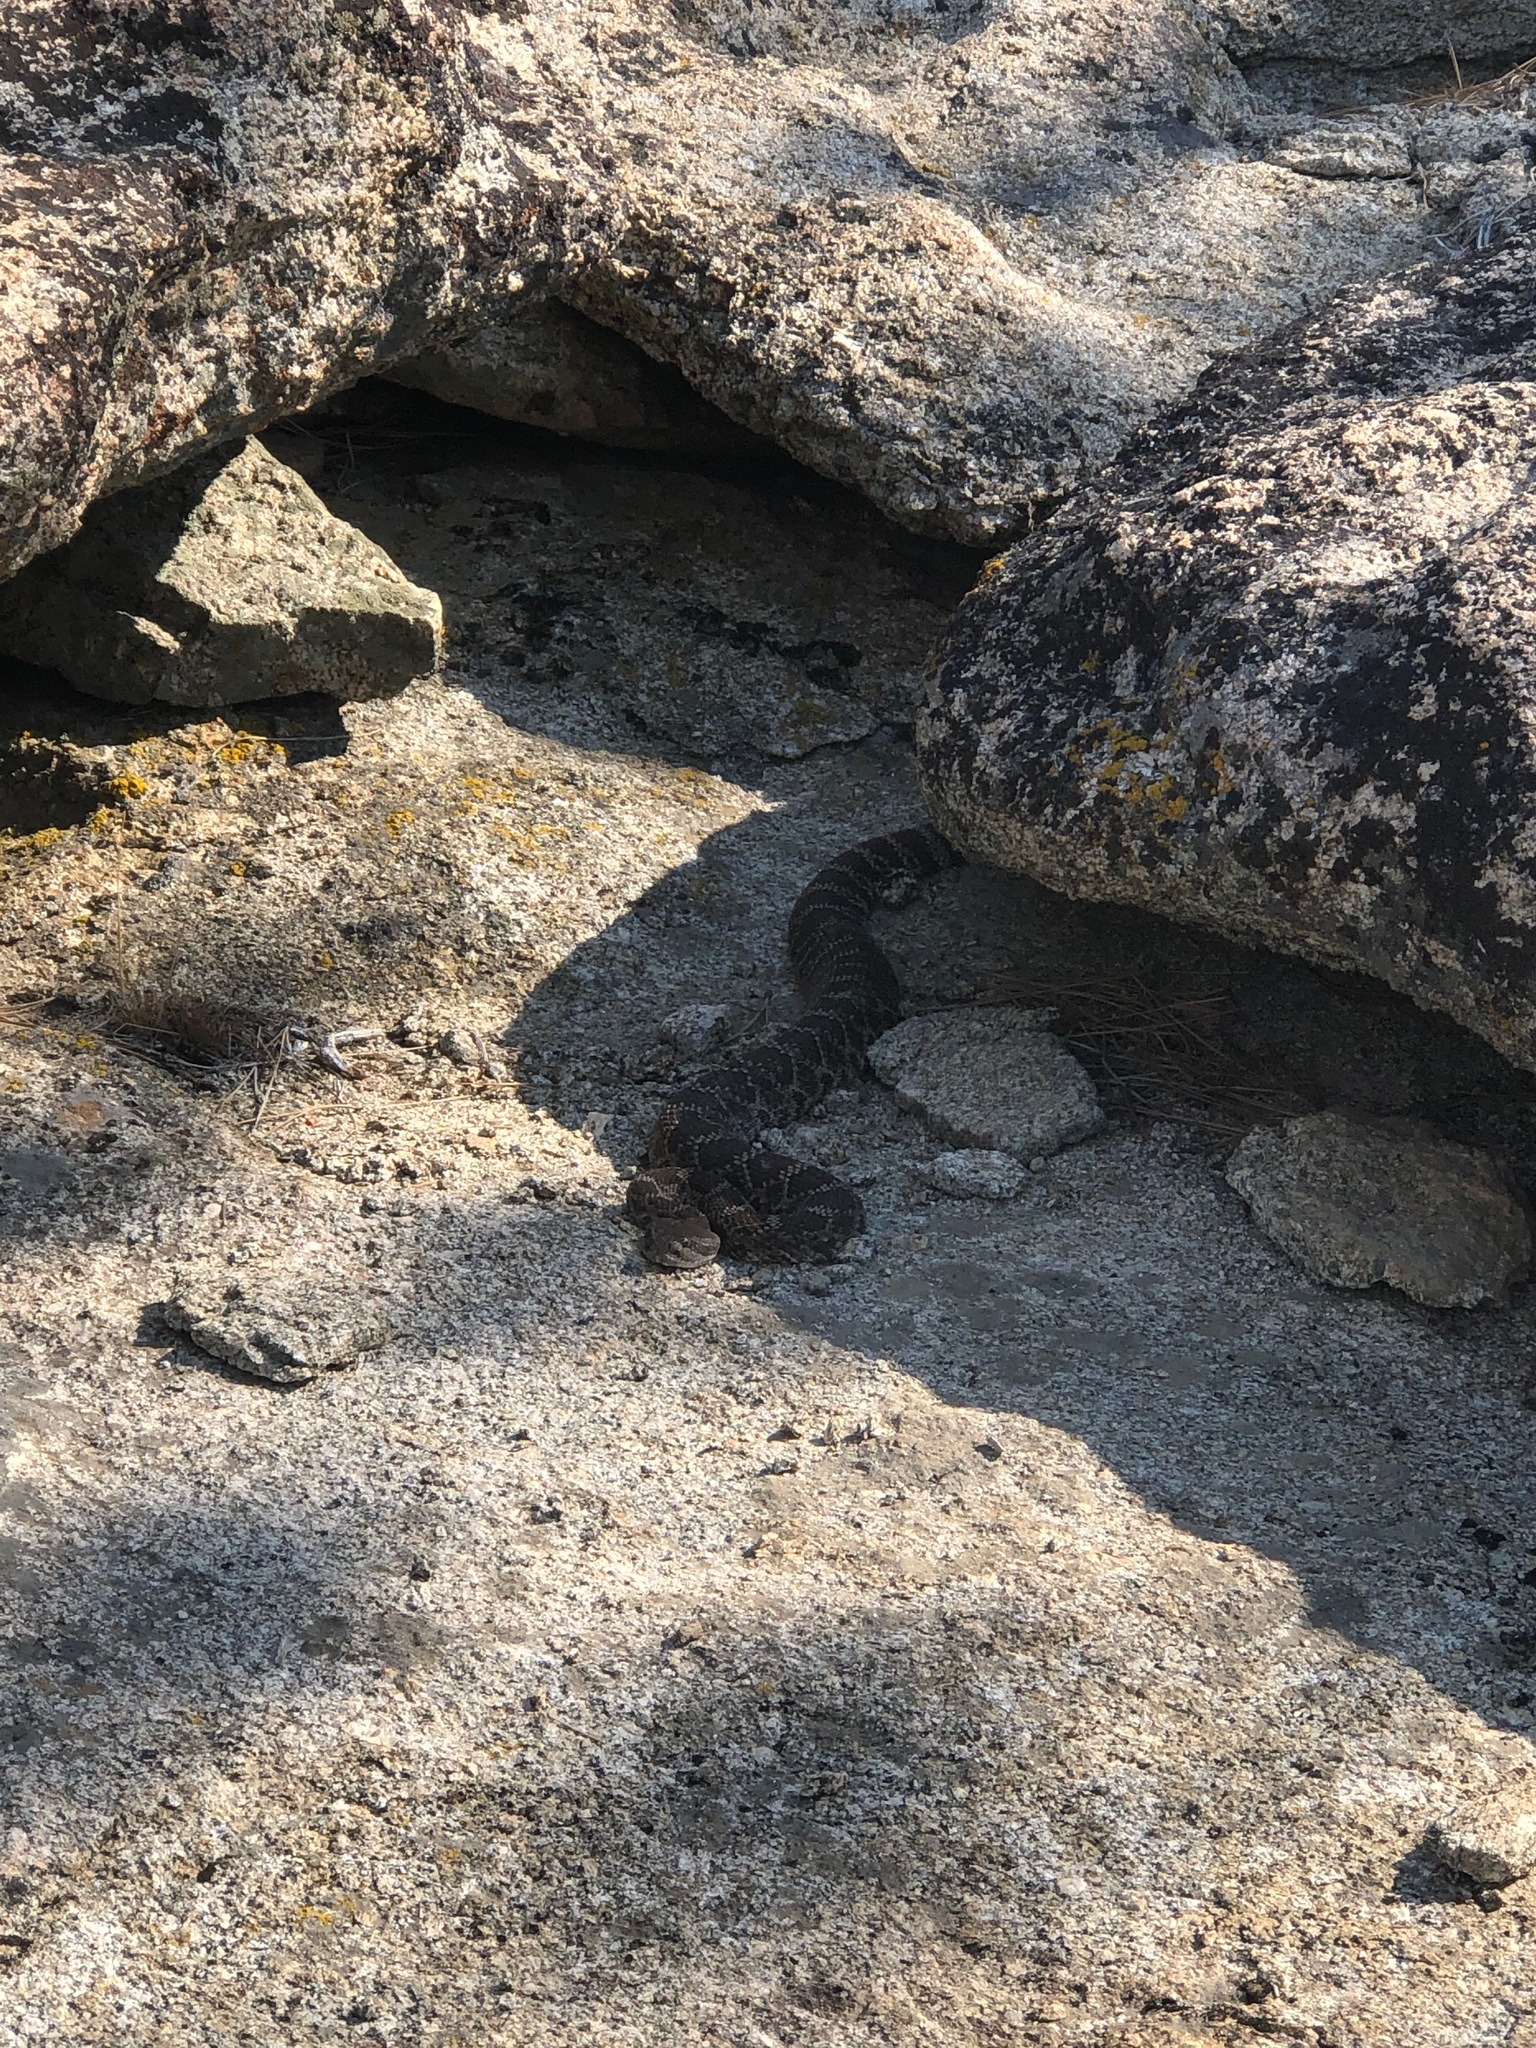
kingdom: Animalia
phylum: Chordata
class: Squamata
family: Viperidae
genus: Crotalus
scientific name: Crotalus oreganus
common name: Abyssus
